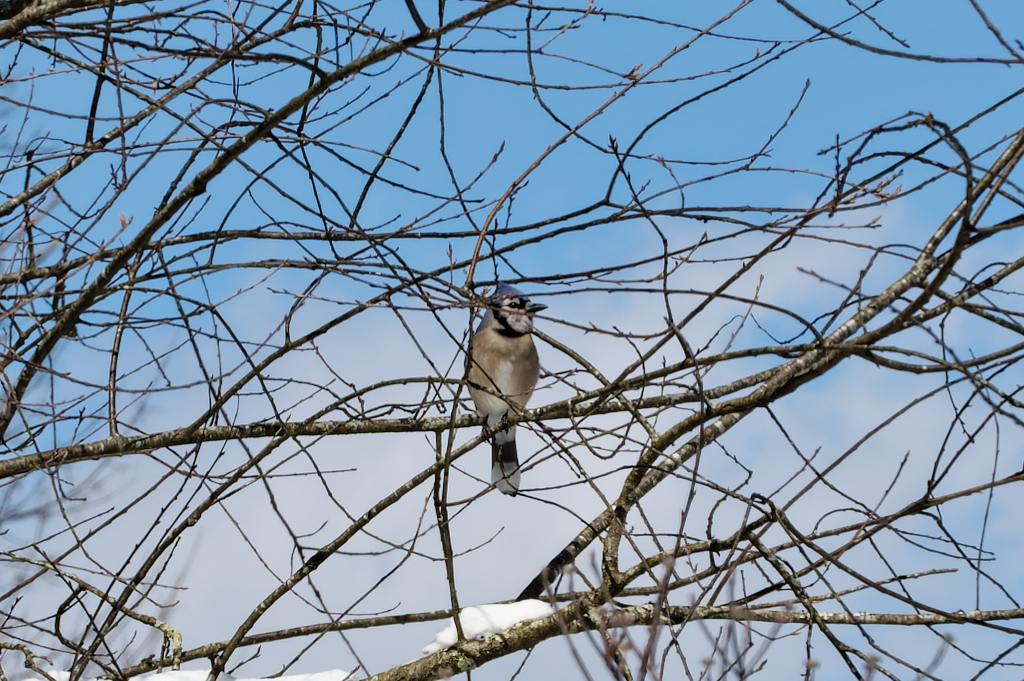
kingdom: Animalia
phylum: Chordata
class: Aves
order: Passeriformes
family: Corvidae
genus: Cyanocitta
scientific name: Cyanocitta cristata
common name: Blue jay
